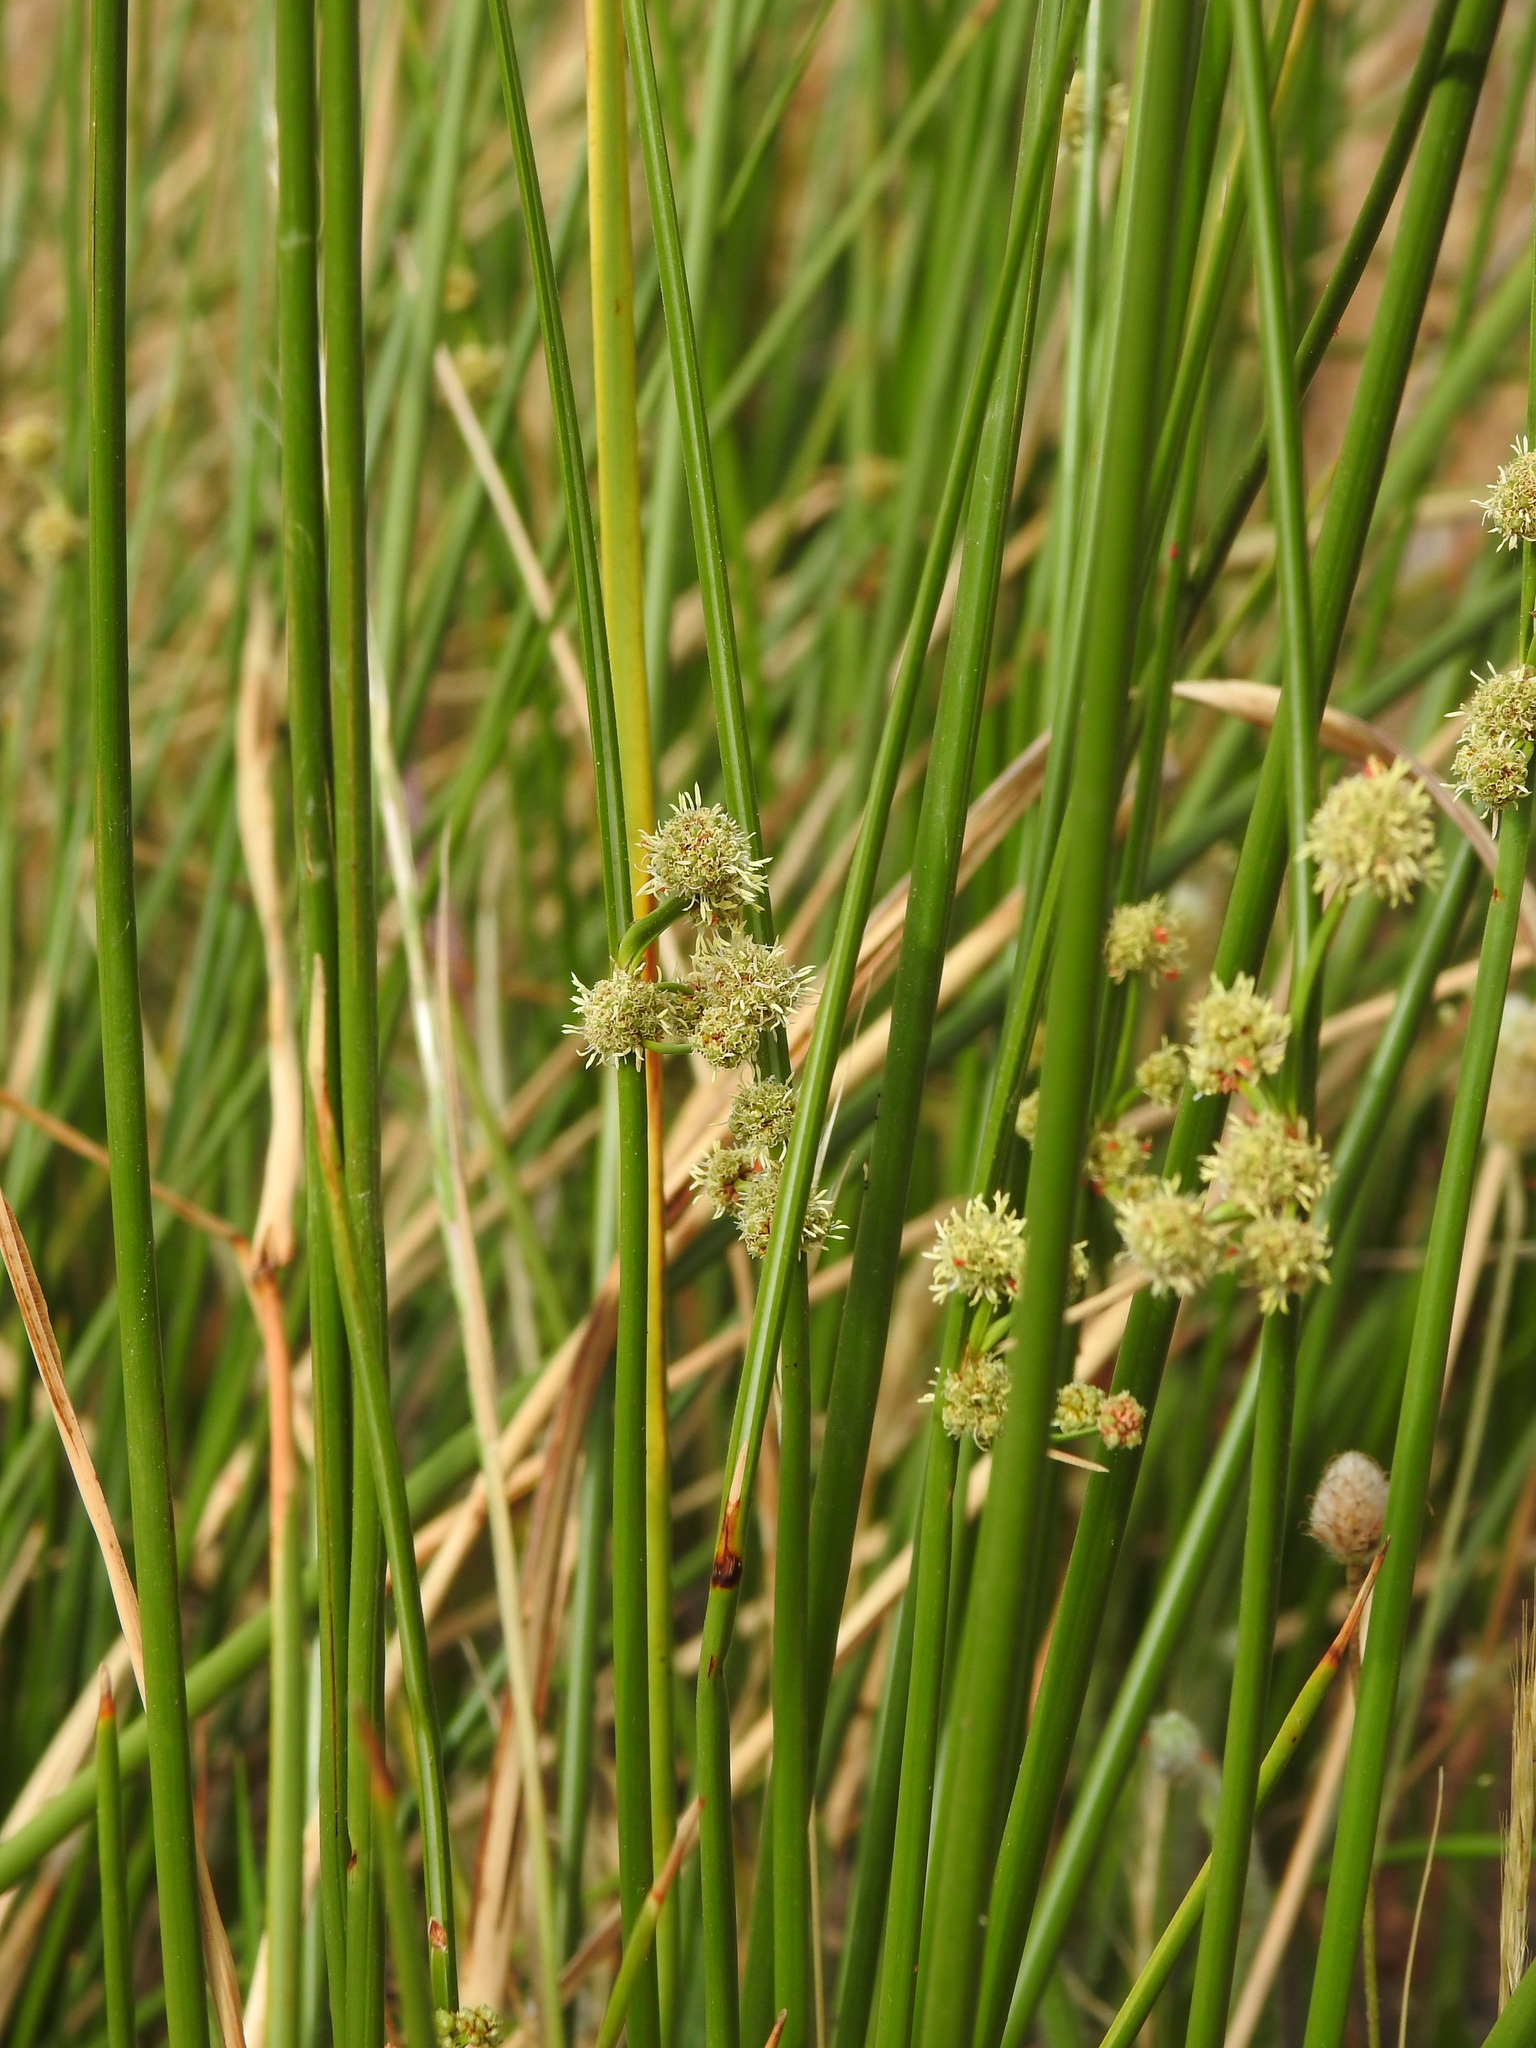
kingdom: Plantae
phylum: Tracheophyta
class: Liliopsida
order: Poales
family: Cyperaceae
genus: Scirpoides
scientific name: Scirpoides holoschoenus
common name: Round-headed club-rush
